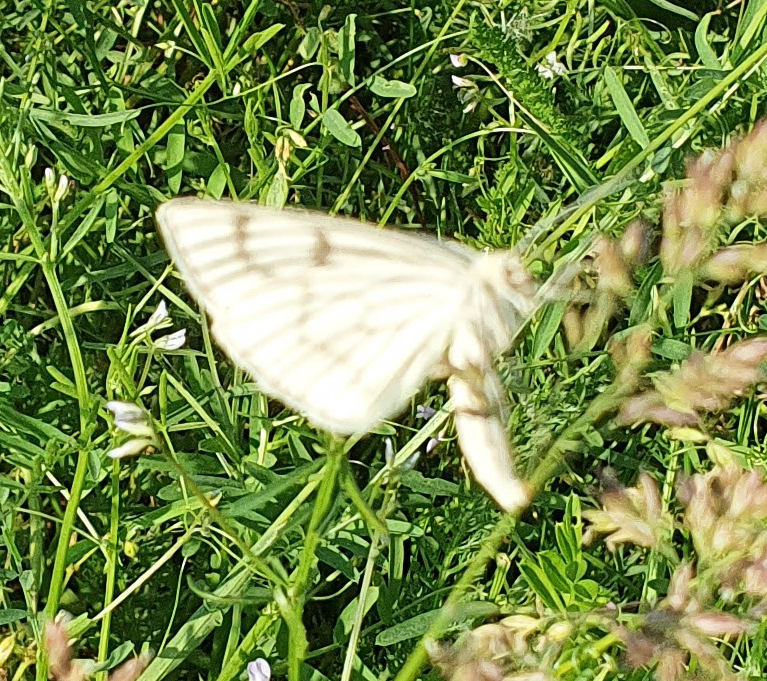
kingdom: Animalia
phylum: Arthropoda
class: Insecta
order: Lepidoptera
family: Geometridae
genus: Siona
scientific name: Siona lineata
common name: Black-veined moth
